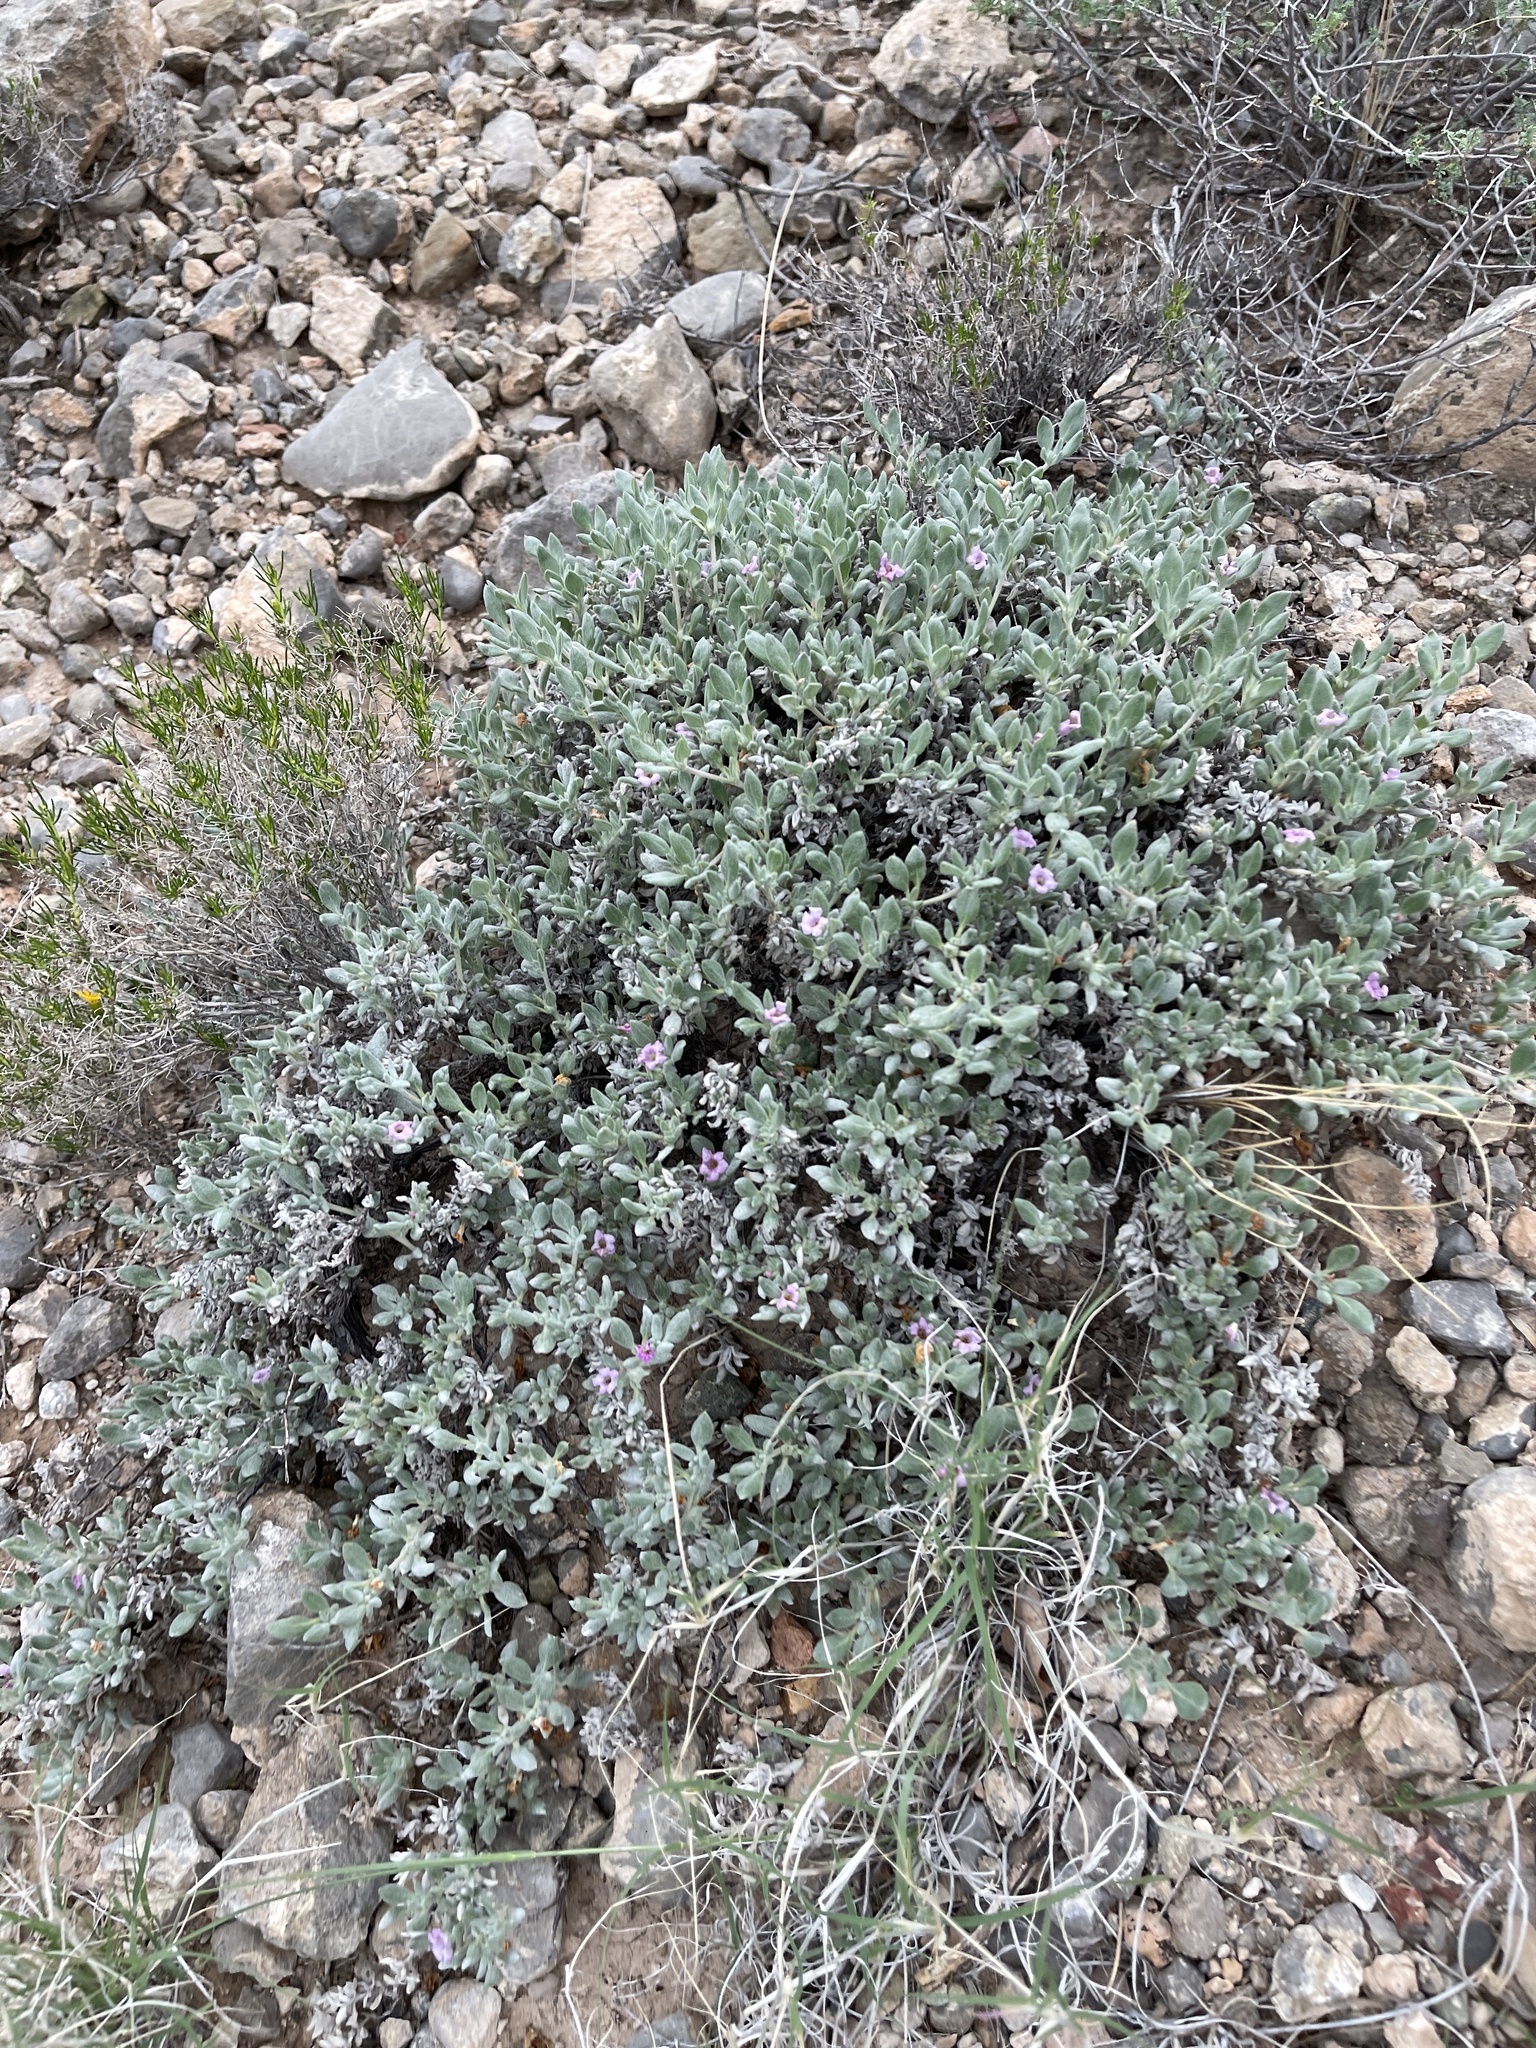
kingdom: Plantae
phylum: Tracheophyta
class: Magnoliopsida
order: Boraginales
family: Ehretiaceae
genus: Tiquilia
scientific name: Tiquilia canescens
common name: Hairy tiquilia
